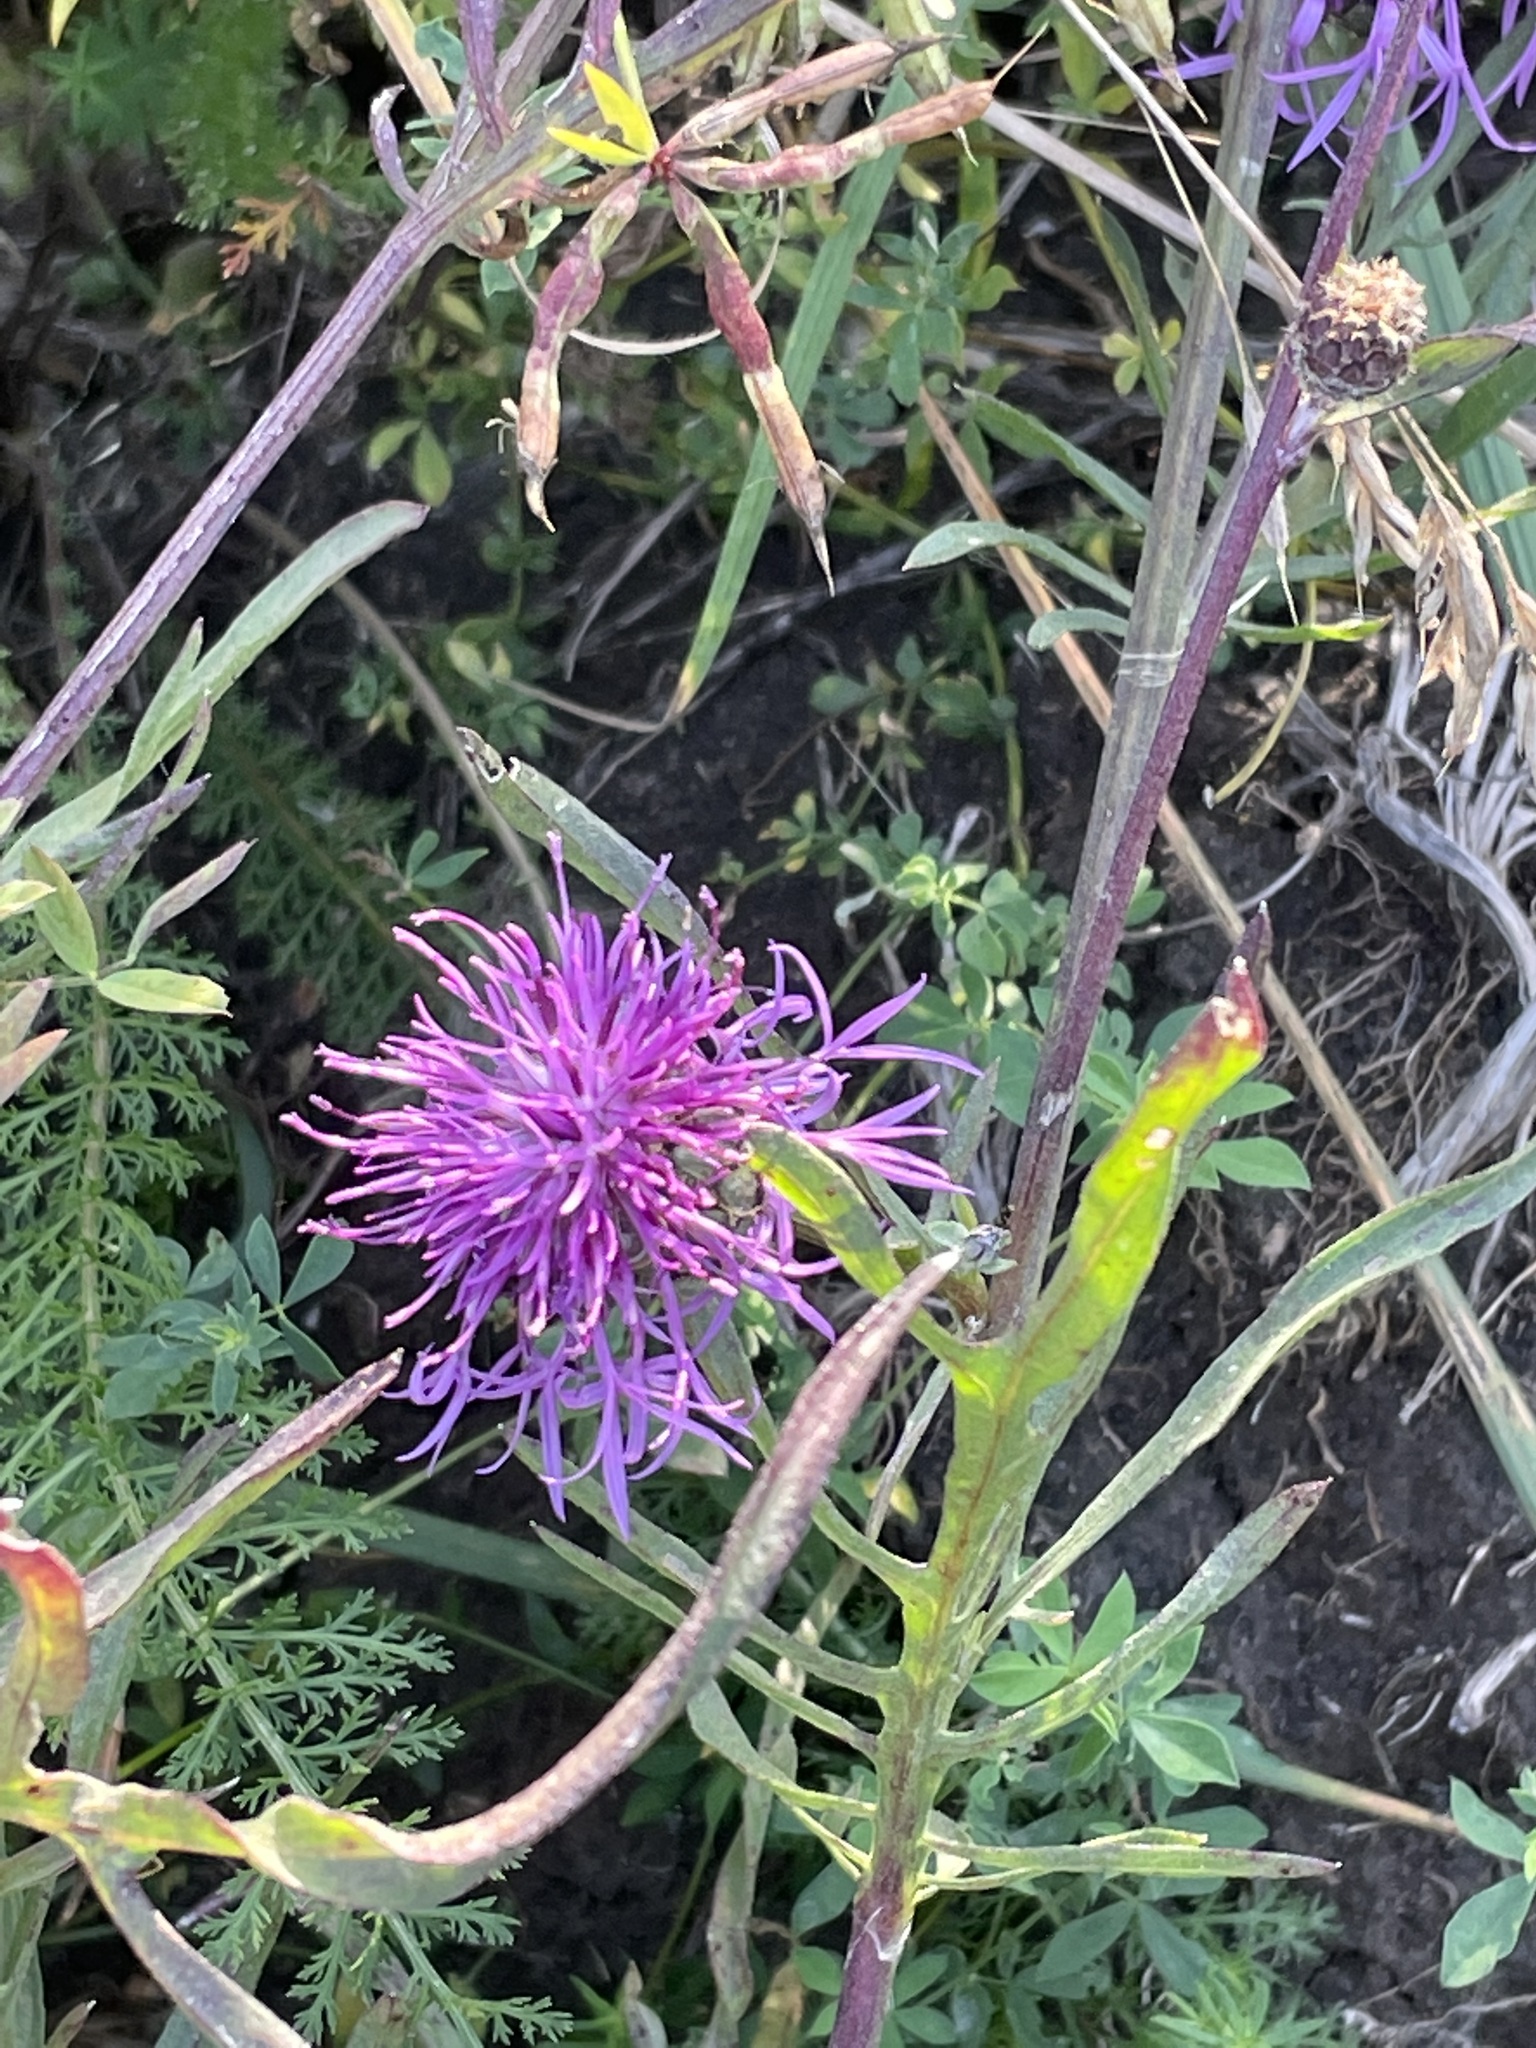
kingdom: Plantae
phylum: Tracheophyta
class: Magnoliopsida
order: Asterales
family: Asteraceae
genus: Centaurea
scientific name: Centaurea scabiosa
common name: Greater knapweed
